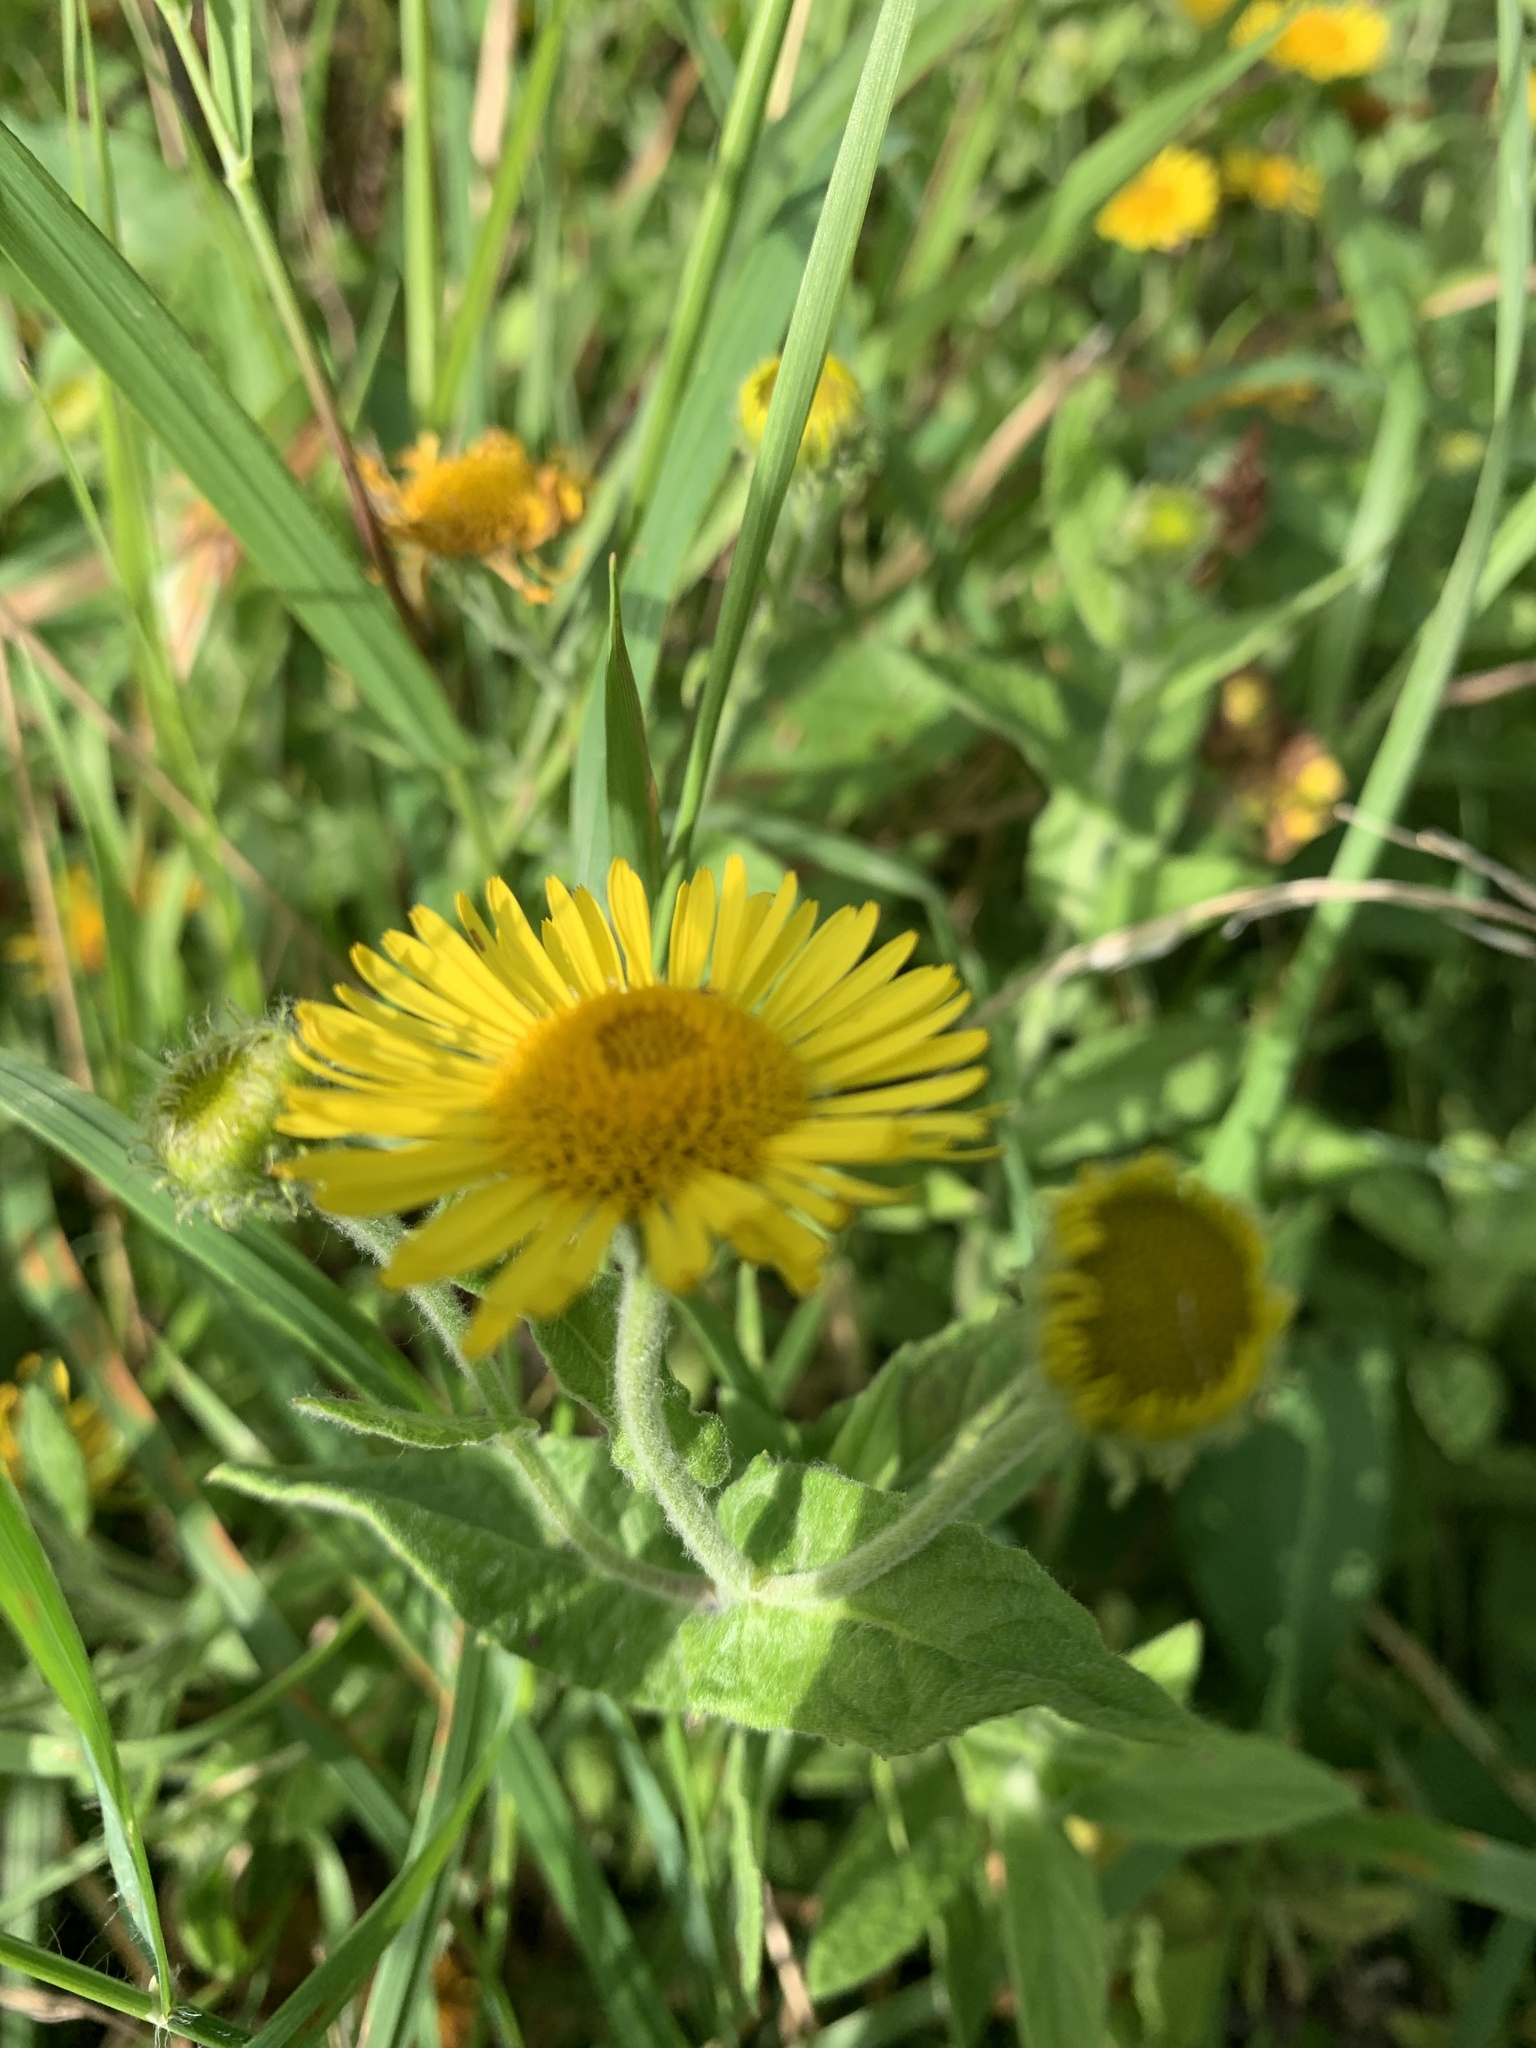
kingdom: Plantae
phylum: Tracheophyta
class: Magnoliopsida
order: Asterales
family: Asteraceae
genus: Pulicaria
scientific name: Pulicaria dysenterica
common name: Common fleabane
